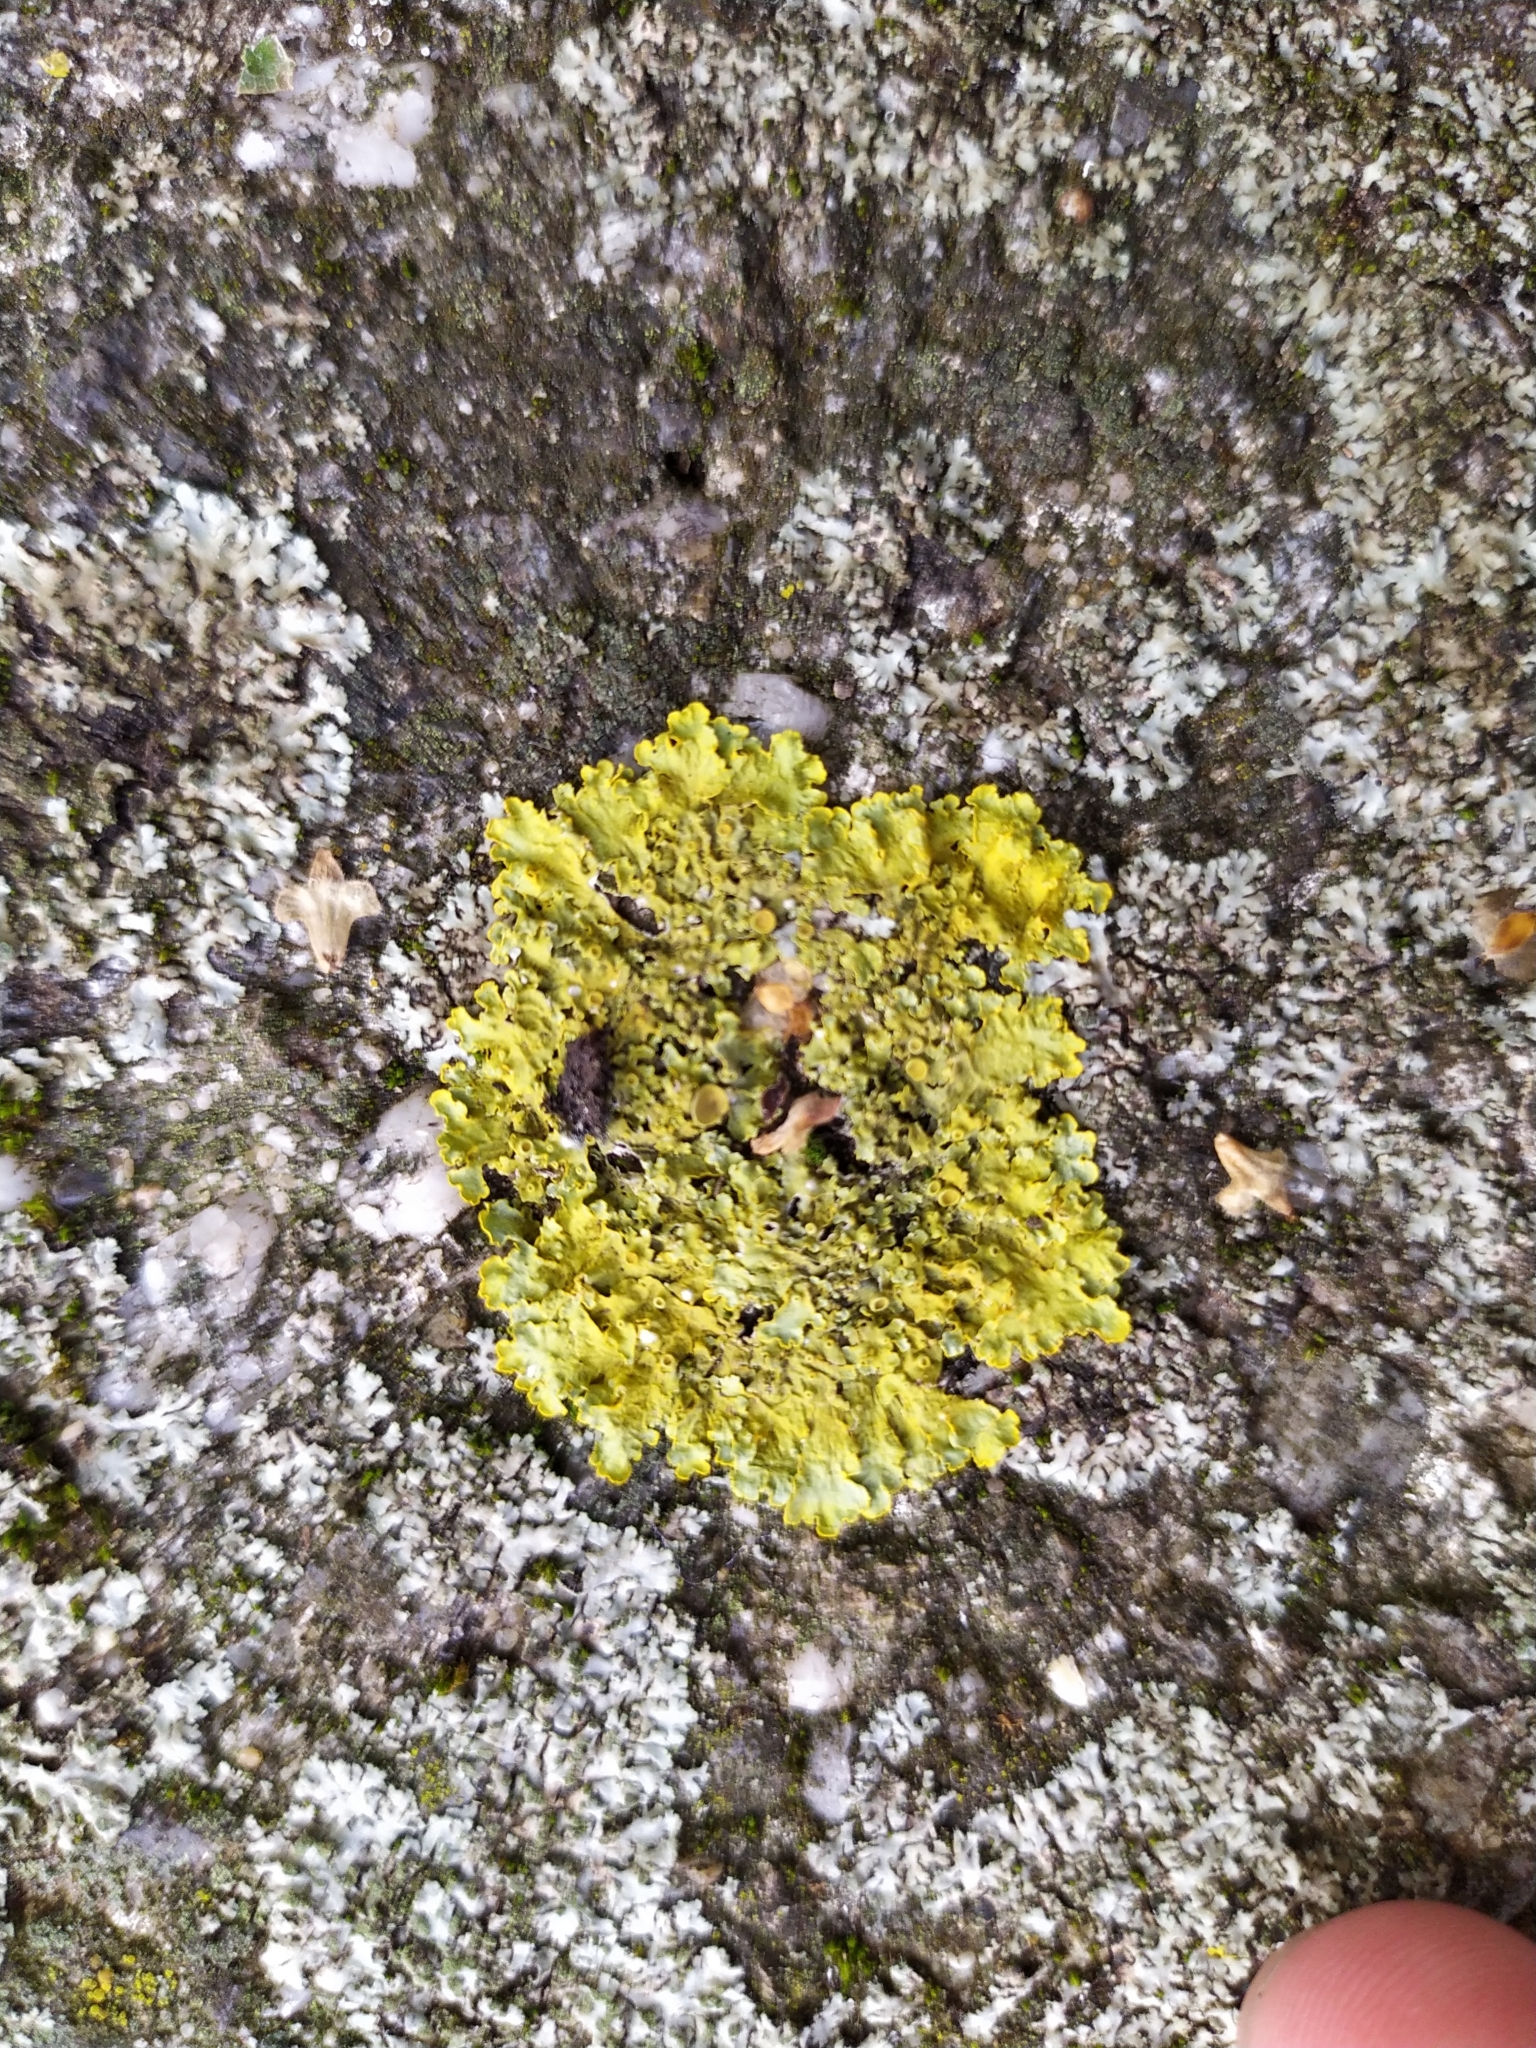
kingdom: Fungi
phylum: Ascomycota
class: Lecanoromycetes
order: Teloschistales
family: Teloschistaceae
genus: Xanthoria
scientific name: Xanthoria parietina
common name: Common orange lichen
